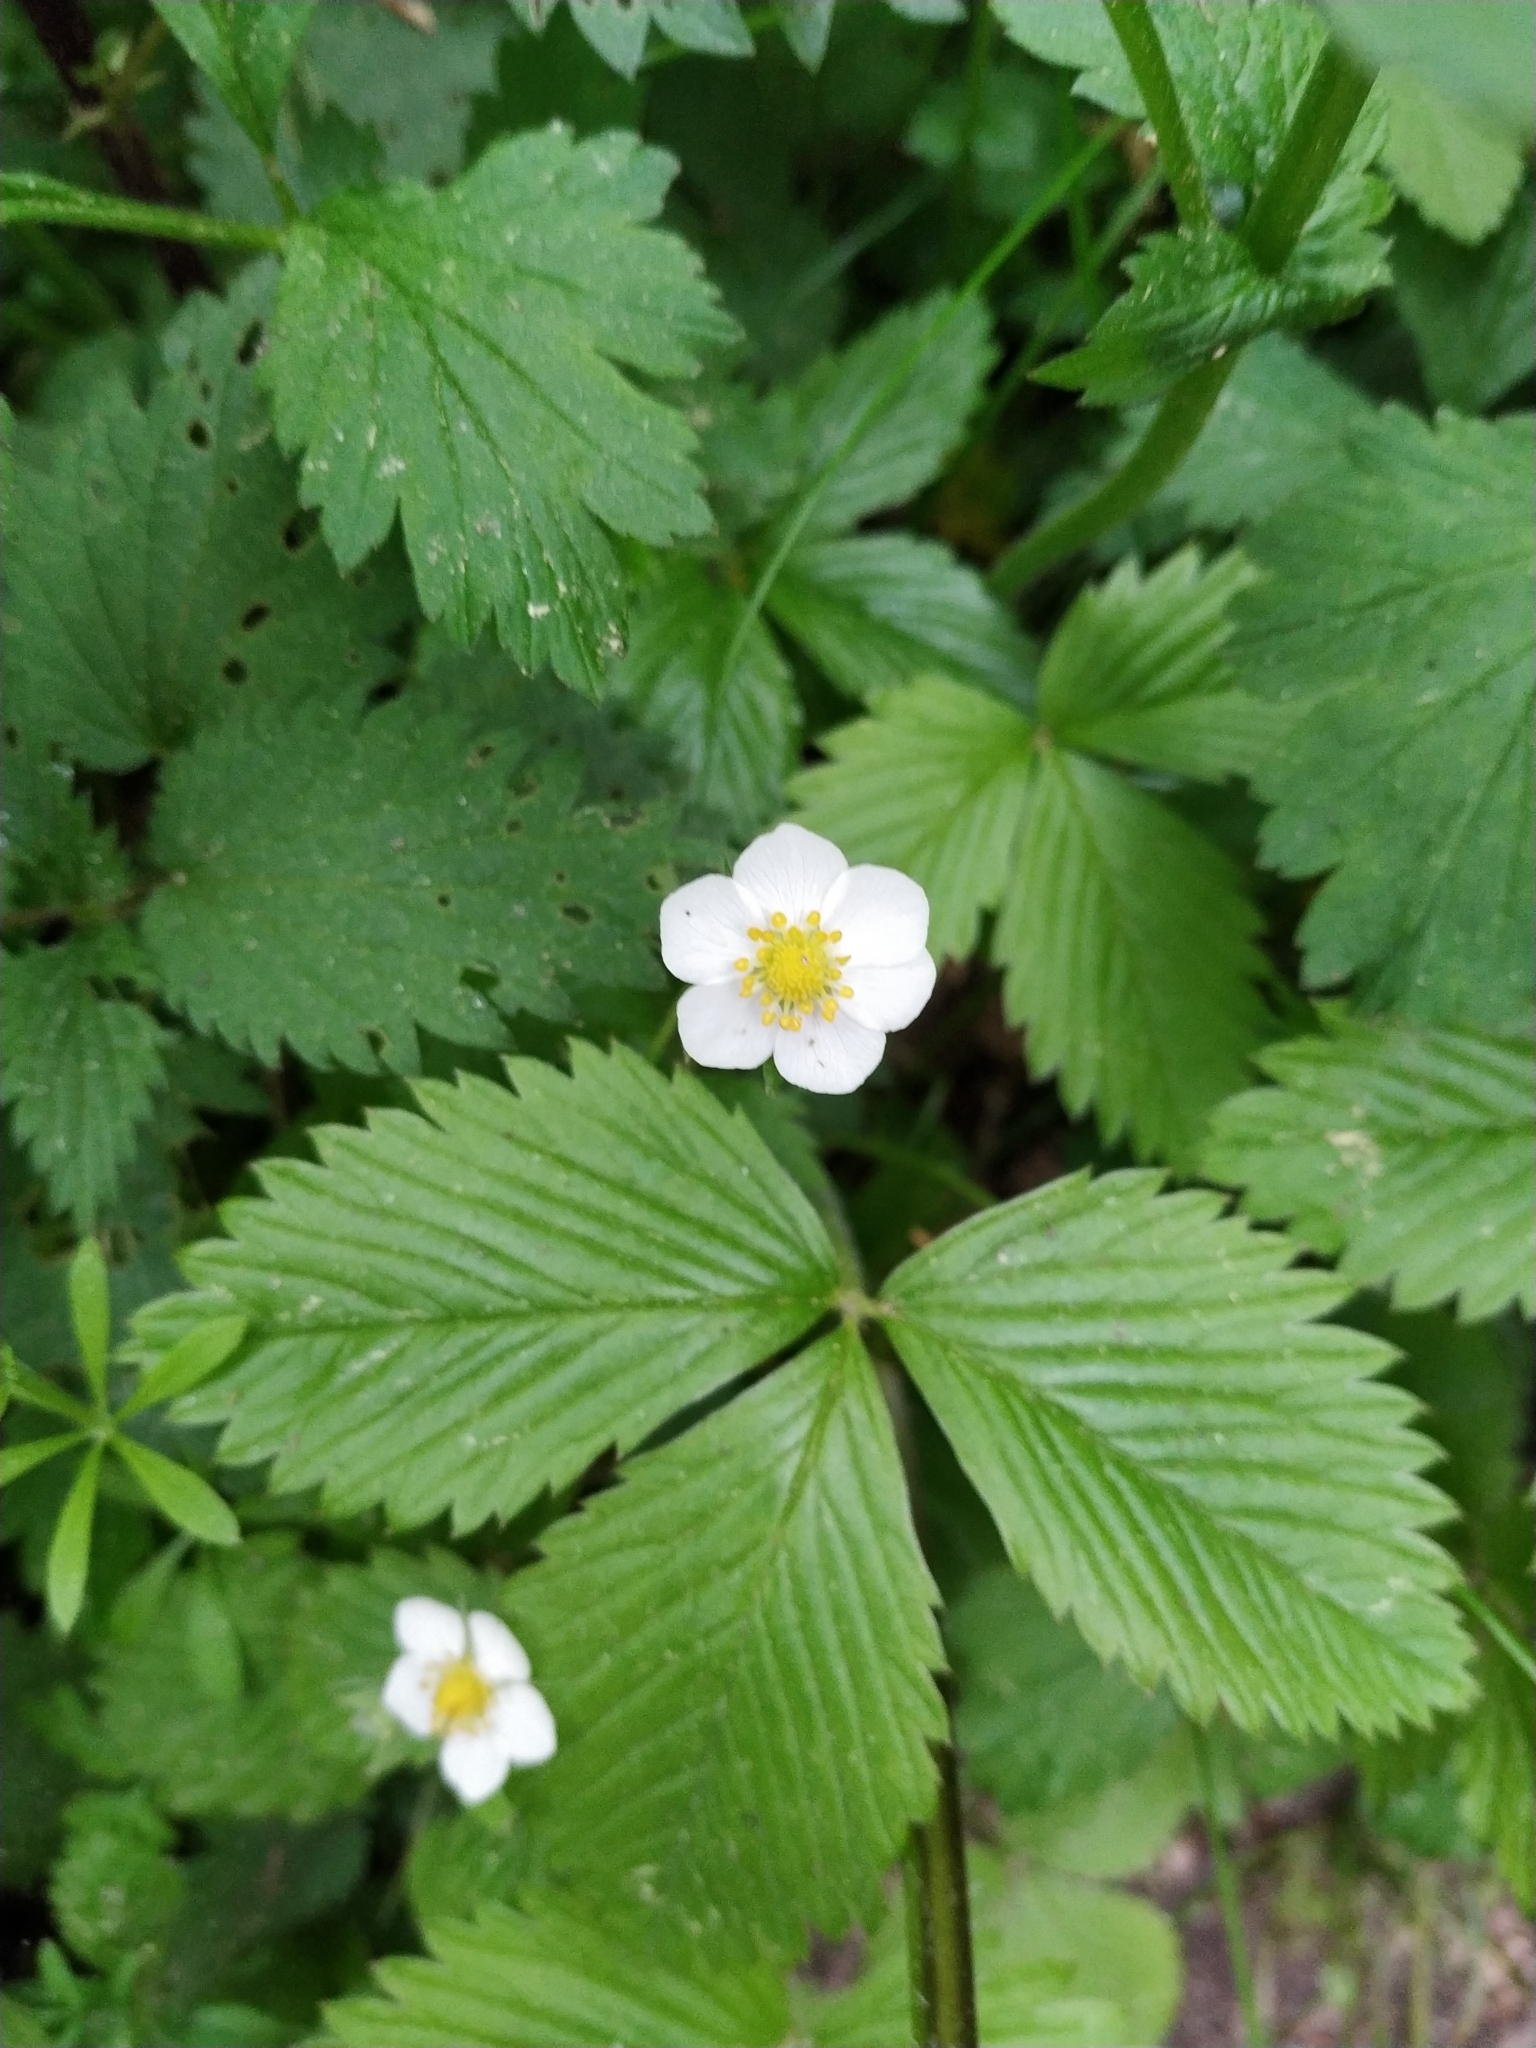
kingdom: Plantae
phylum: Tracheophyta
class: Magnoliopsida
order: Rosales
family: Rosaceae
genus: Fragaria
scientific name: Fragaria vesca
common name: Wild strawberry
